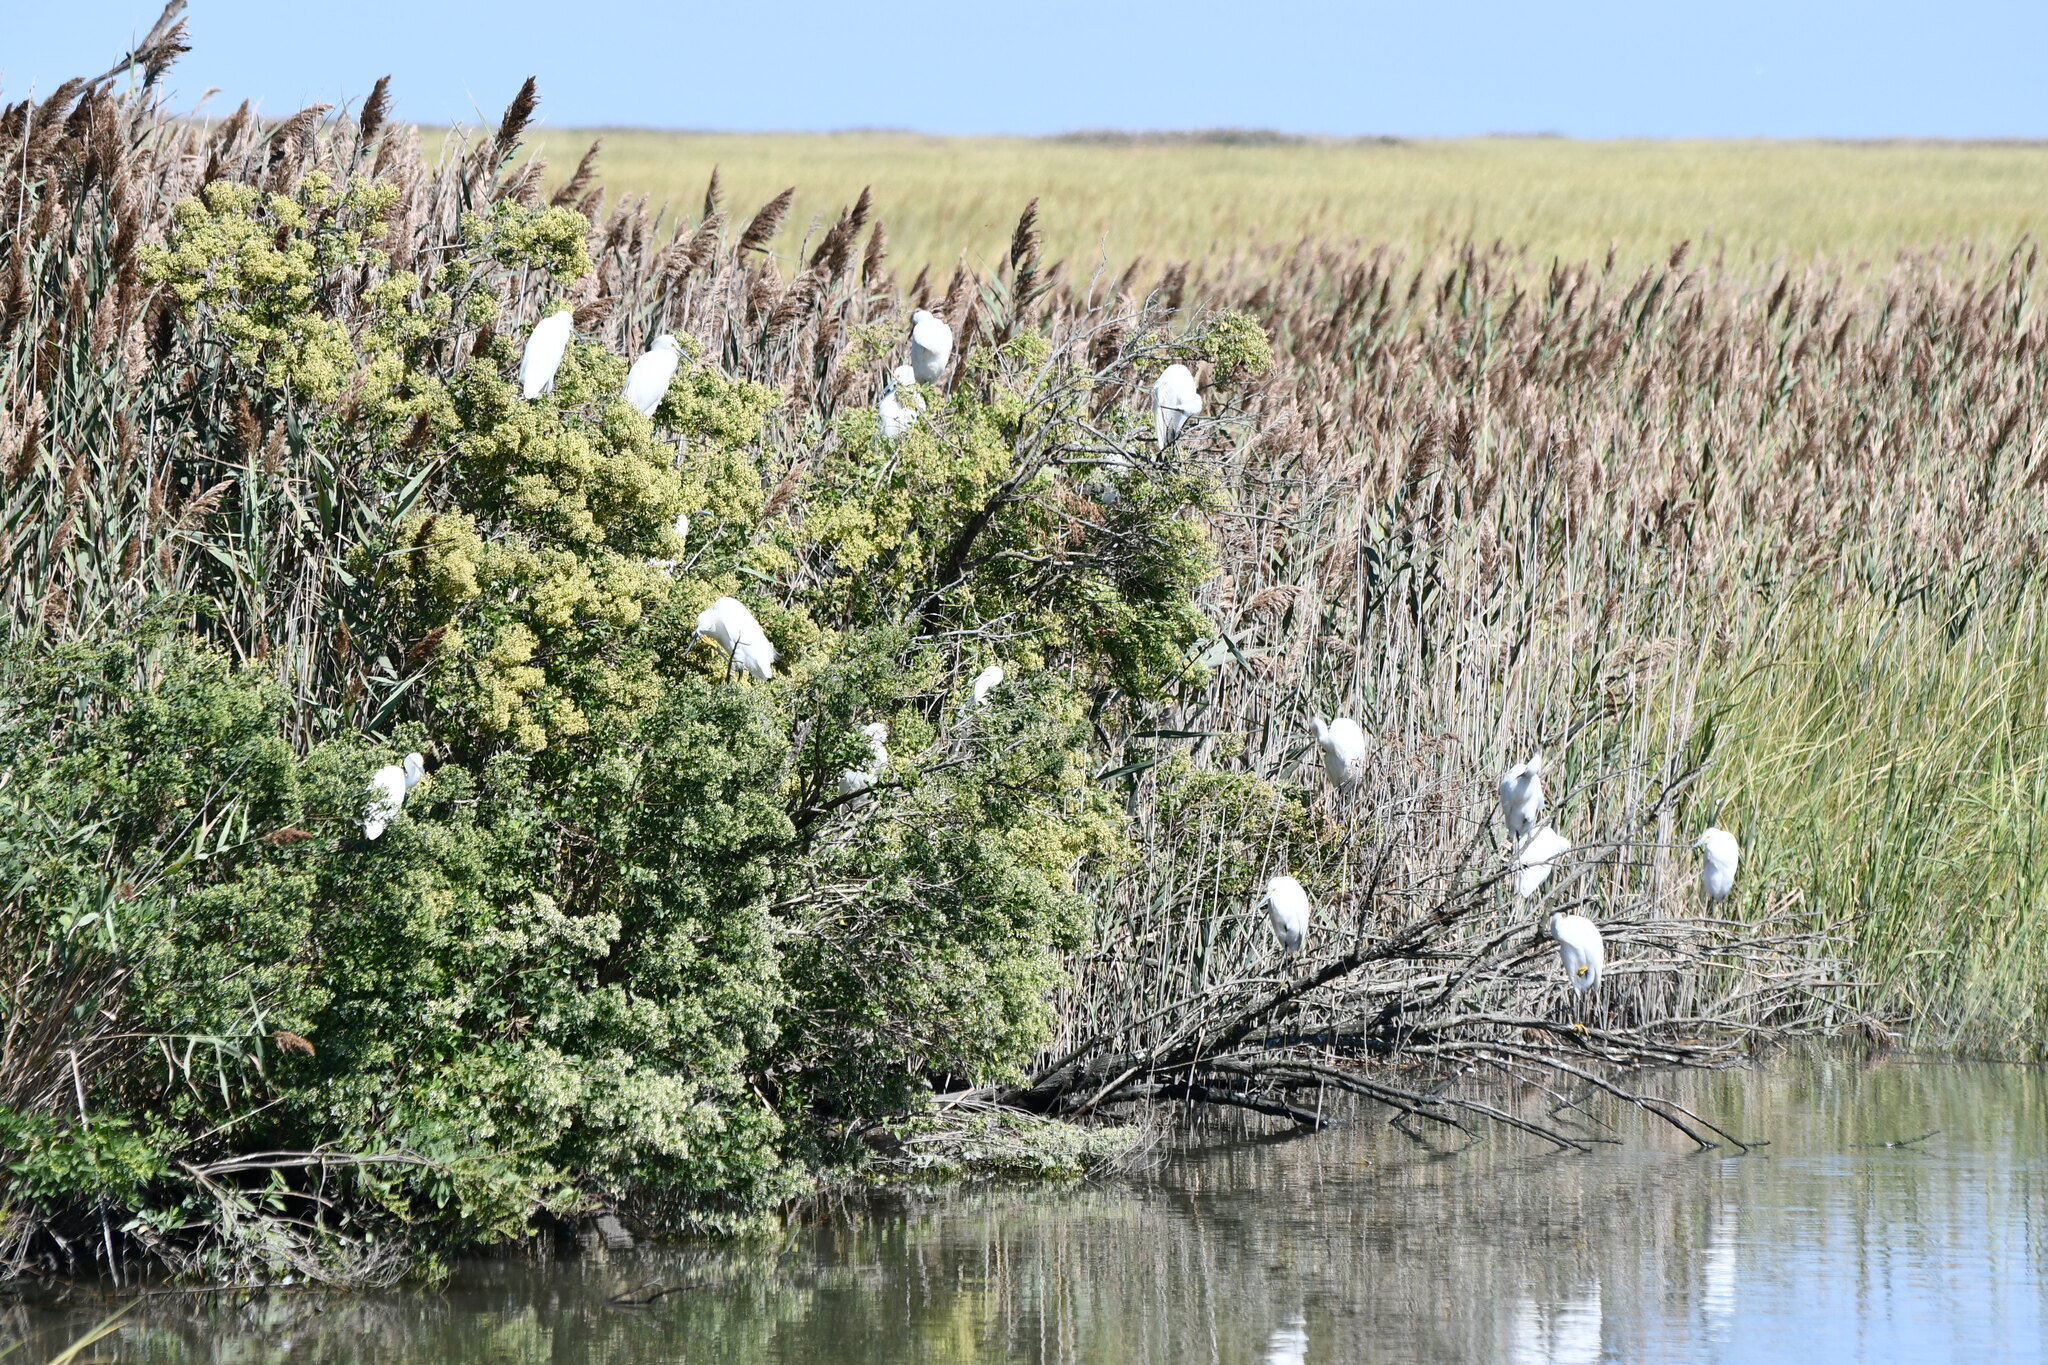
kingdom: Animalia
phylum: Chordata
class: Aves
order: Pelecaniformes
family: Ardeidae
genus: Egretta
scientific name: Egretta thula
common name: Snowy egret
